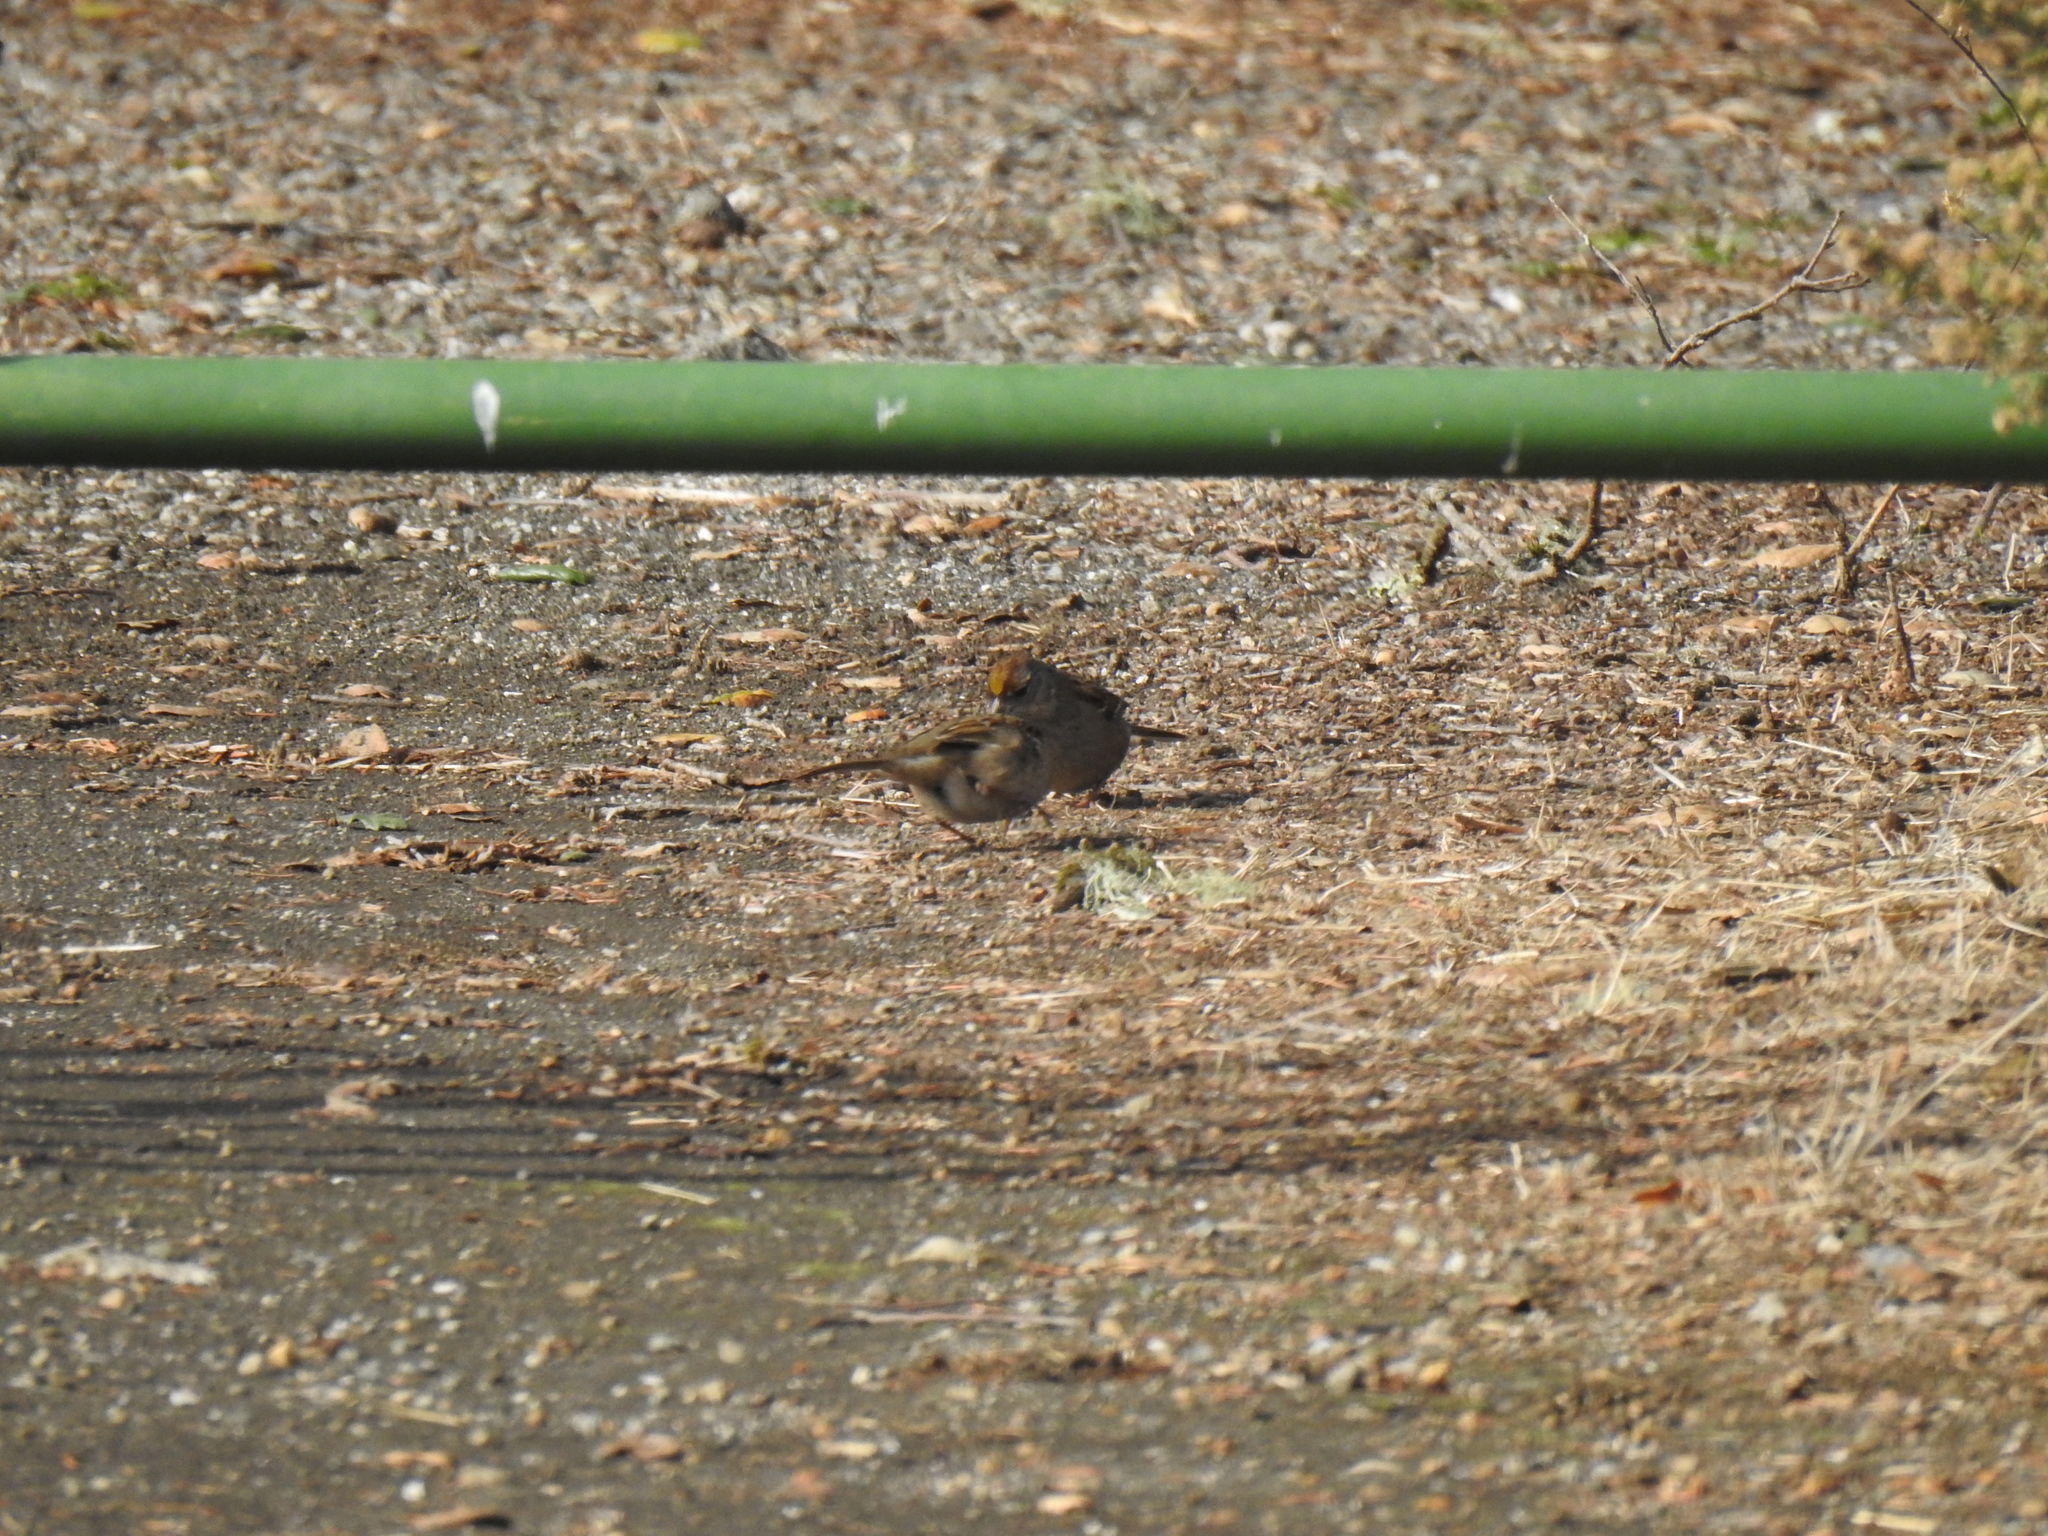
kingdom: Animalia
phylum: Chordata
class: Aves
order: Passeriformes
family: Passerellidae
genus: Zonotrichia
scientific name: Zonotrichia atricapilla
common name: Golden-crowned sparrow
